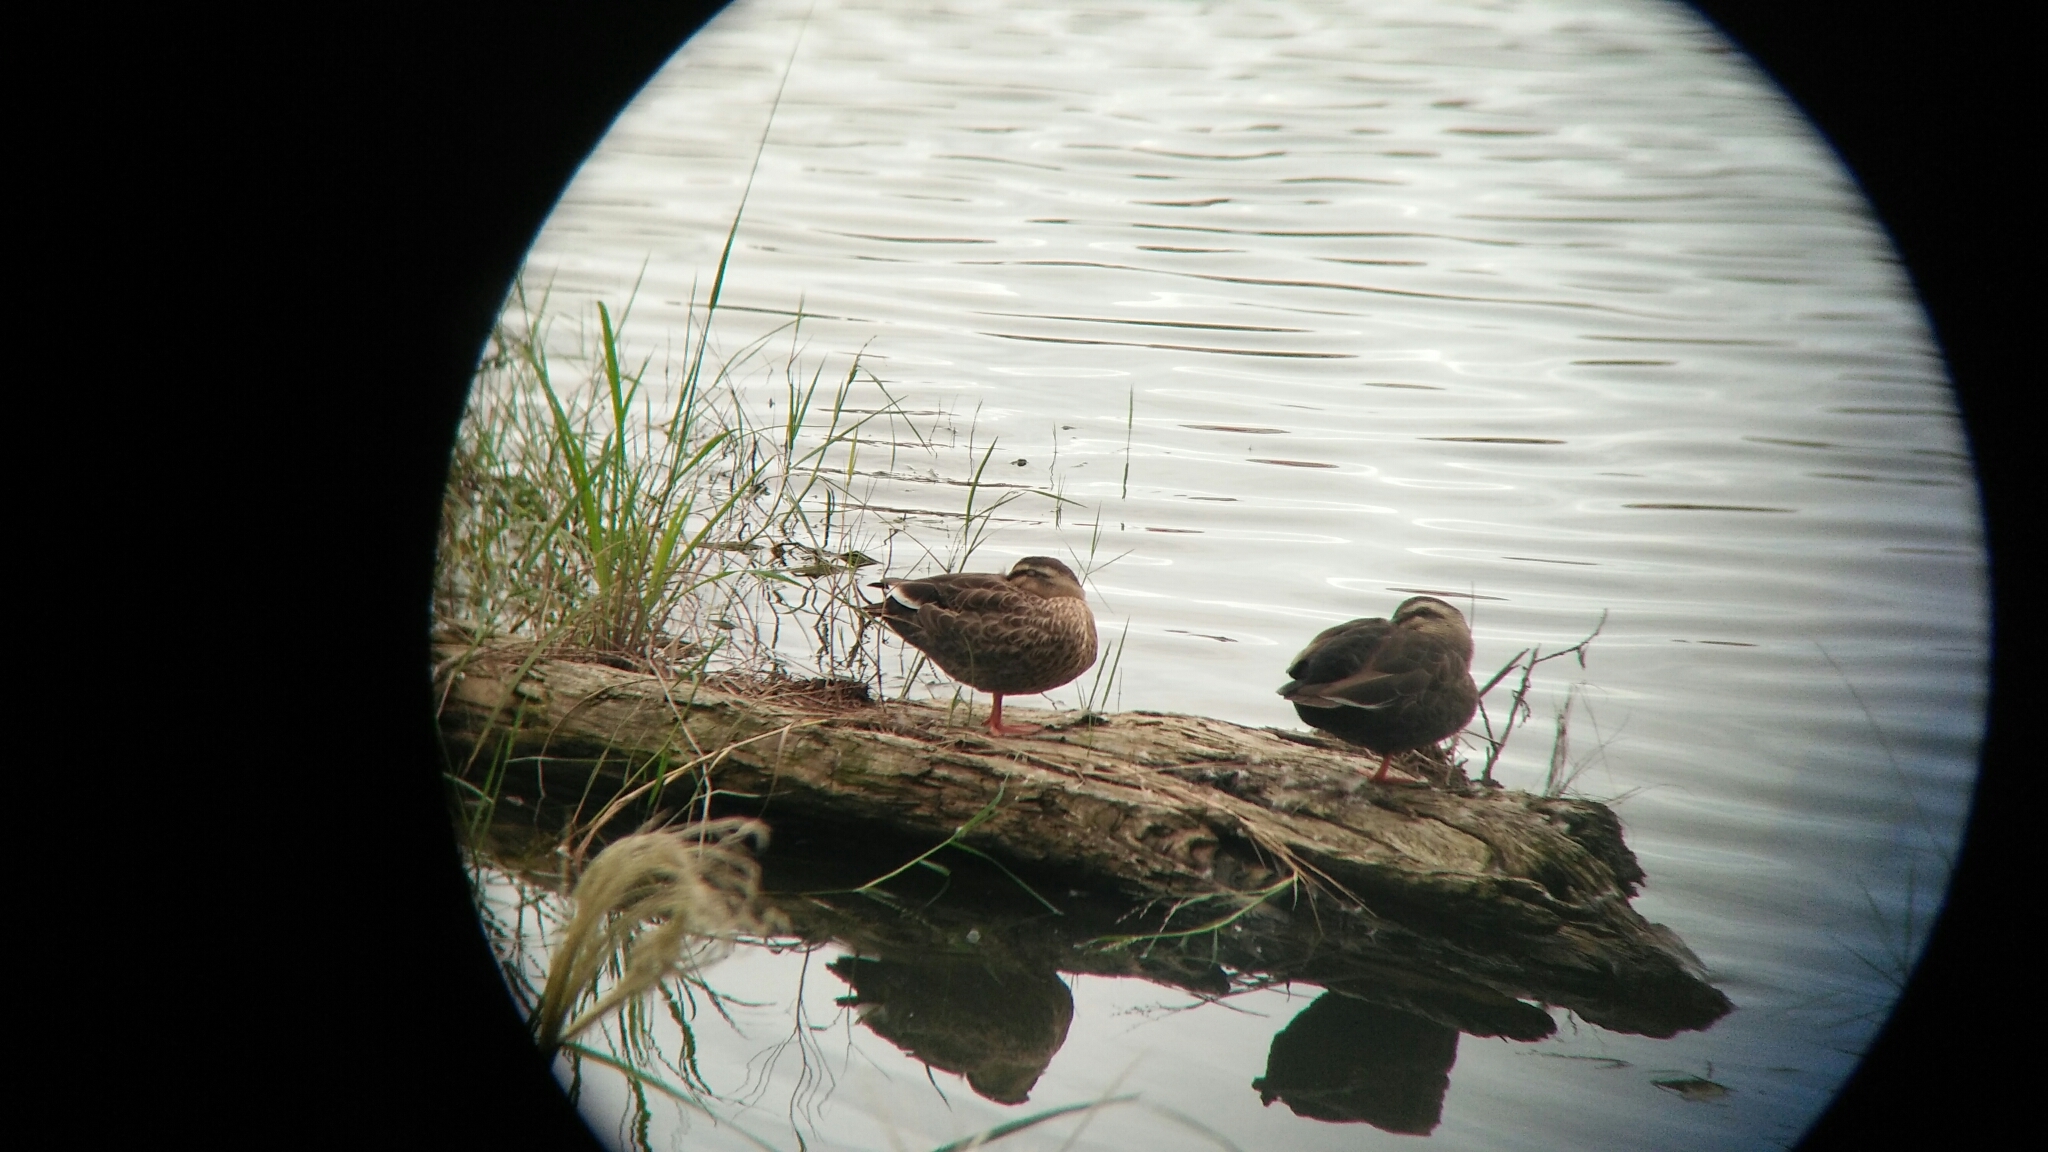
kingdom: Animalia
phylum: Chordata
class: Aves
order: Anseriformes
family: Anatidae
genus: Anas
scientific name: Anas zonorhyncha
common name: Eastern spot-billed duck
